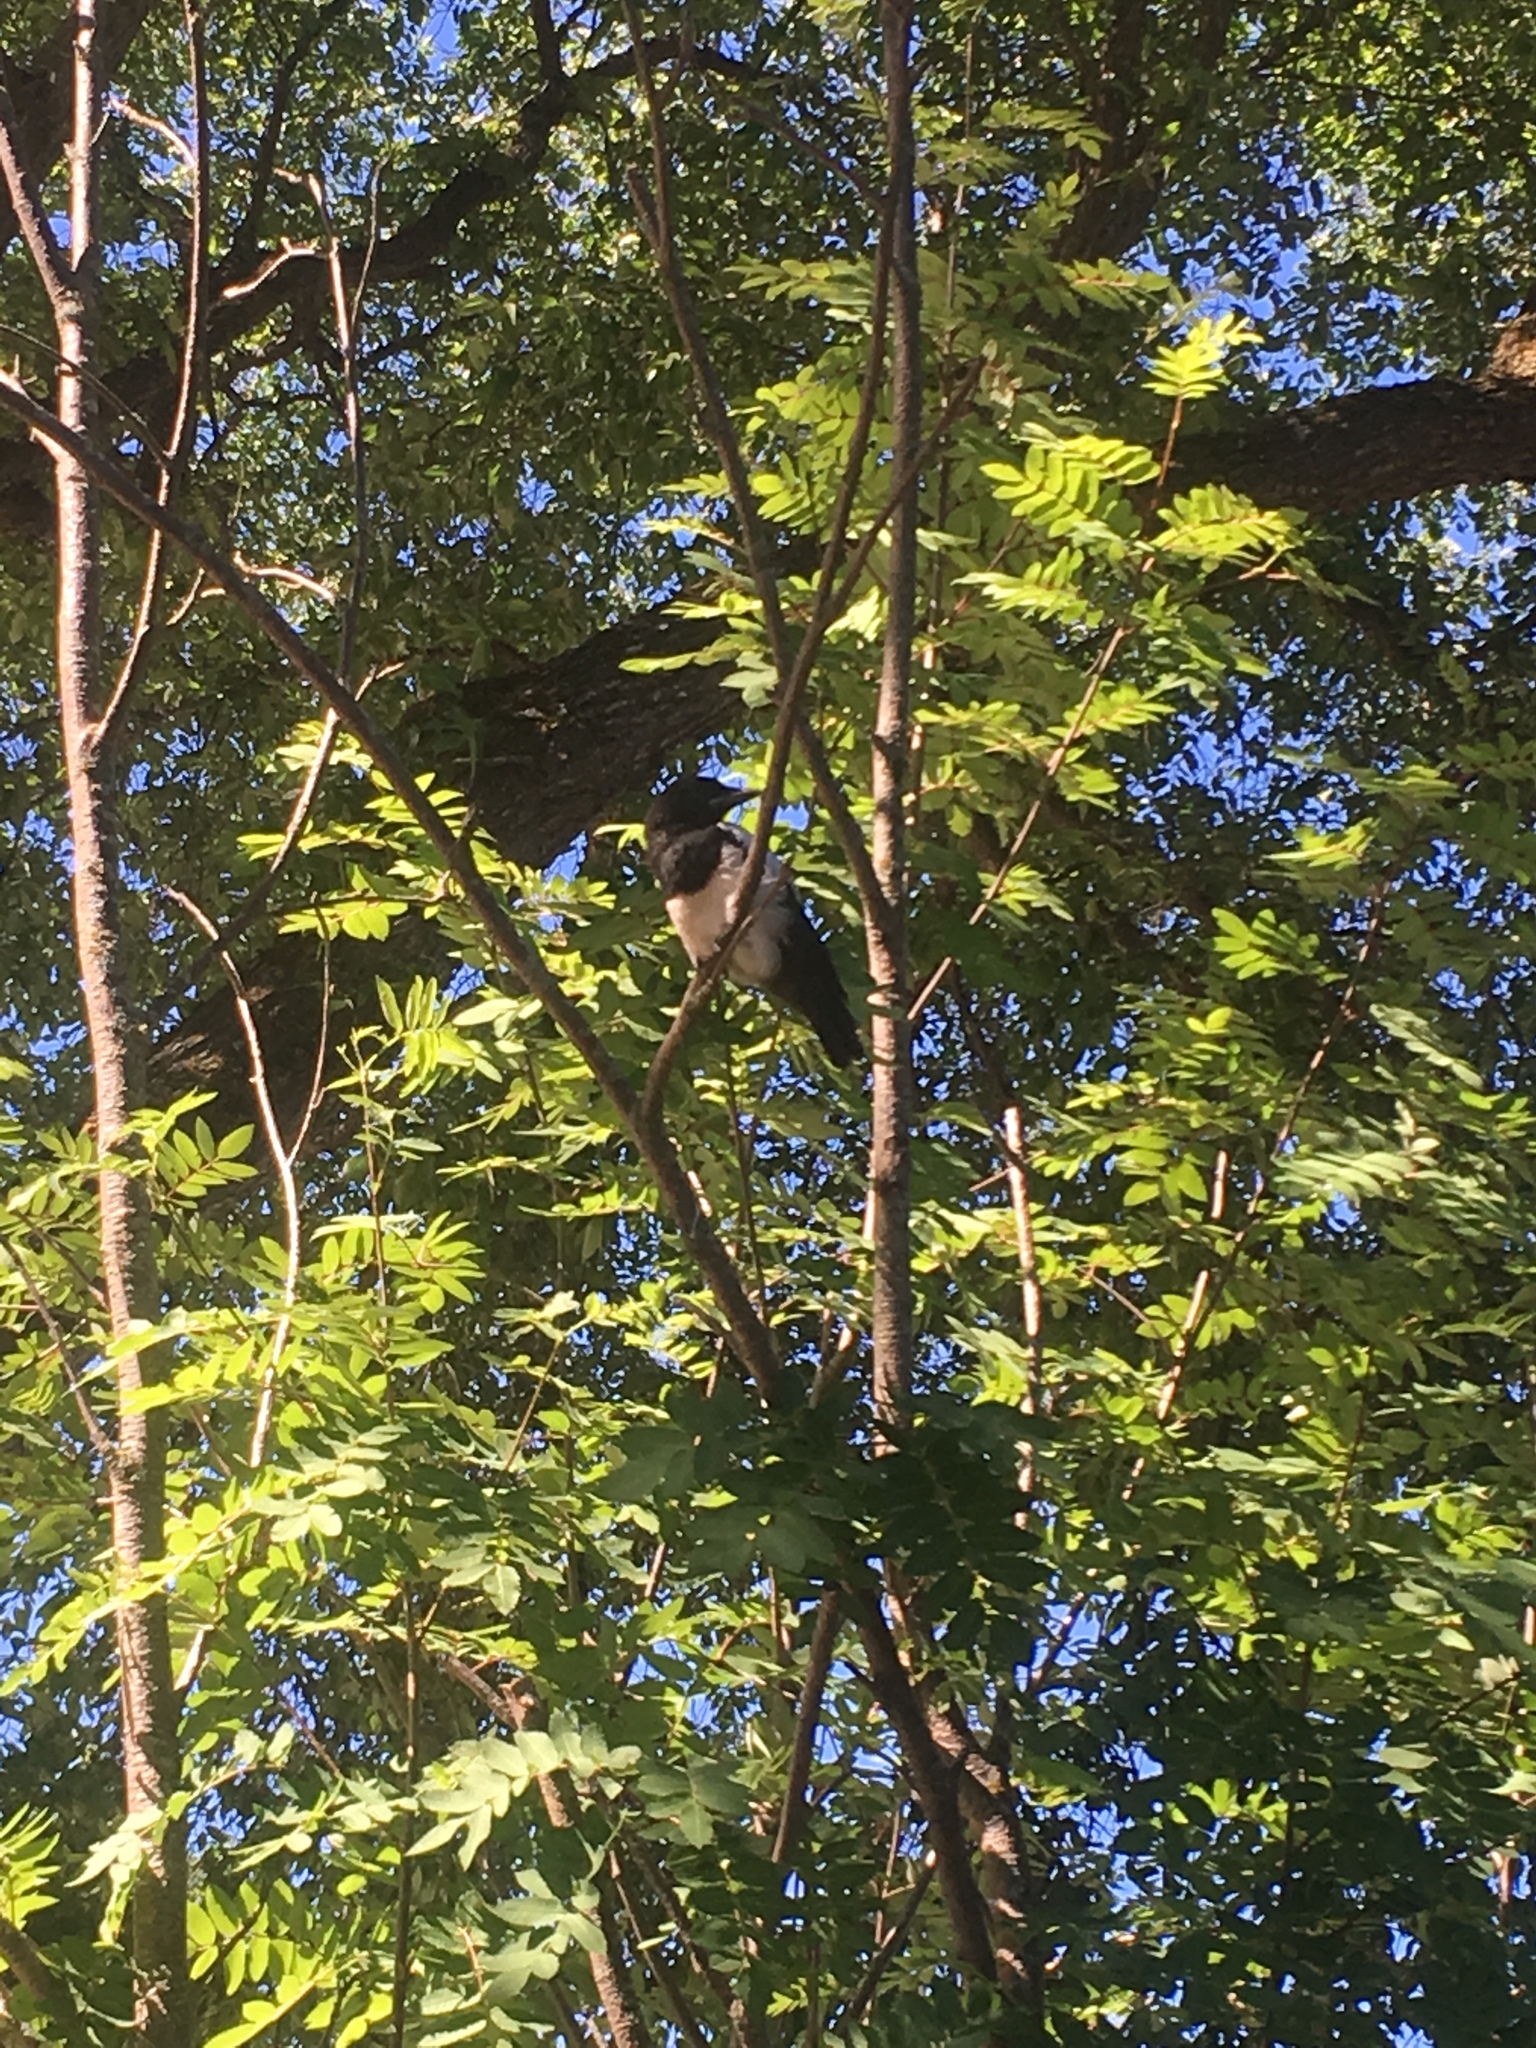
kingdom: Animalia
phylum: Chordata
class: Aves
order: Passeriformes
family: Corvidae
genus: Pica
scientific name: Pica hudsonia
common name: Black-billed magpie
